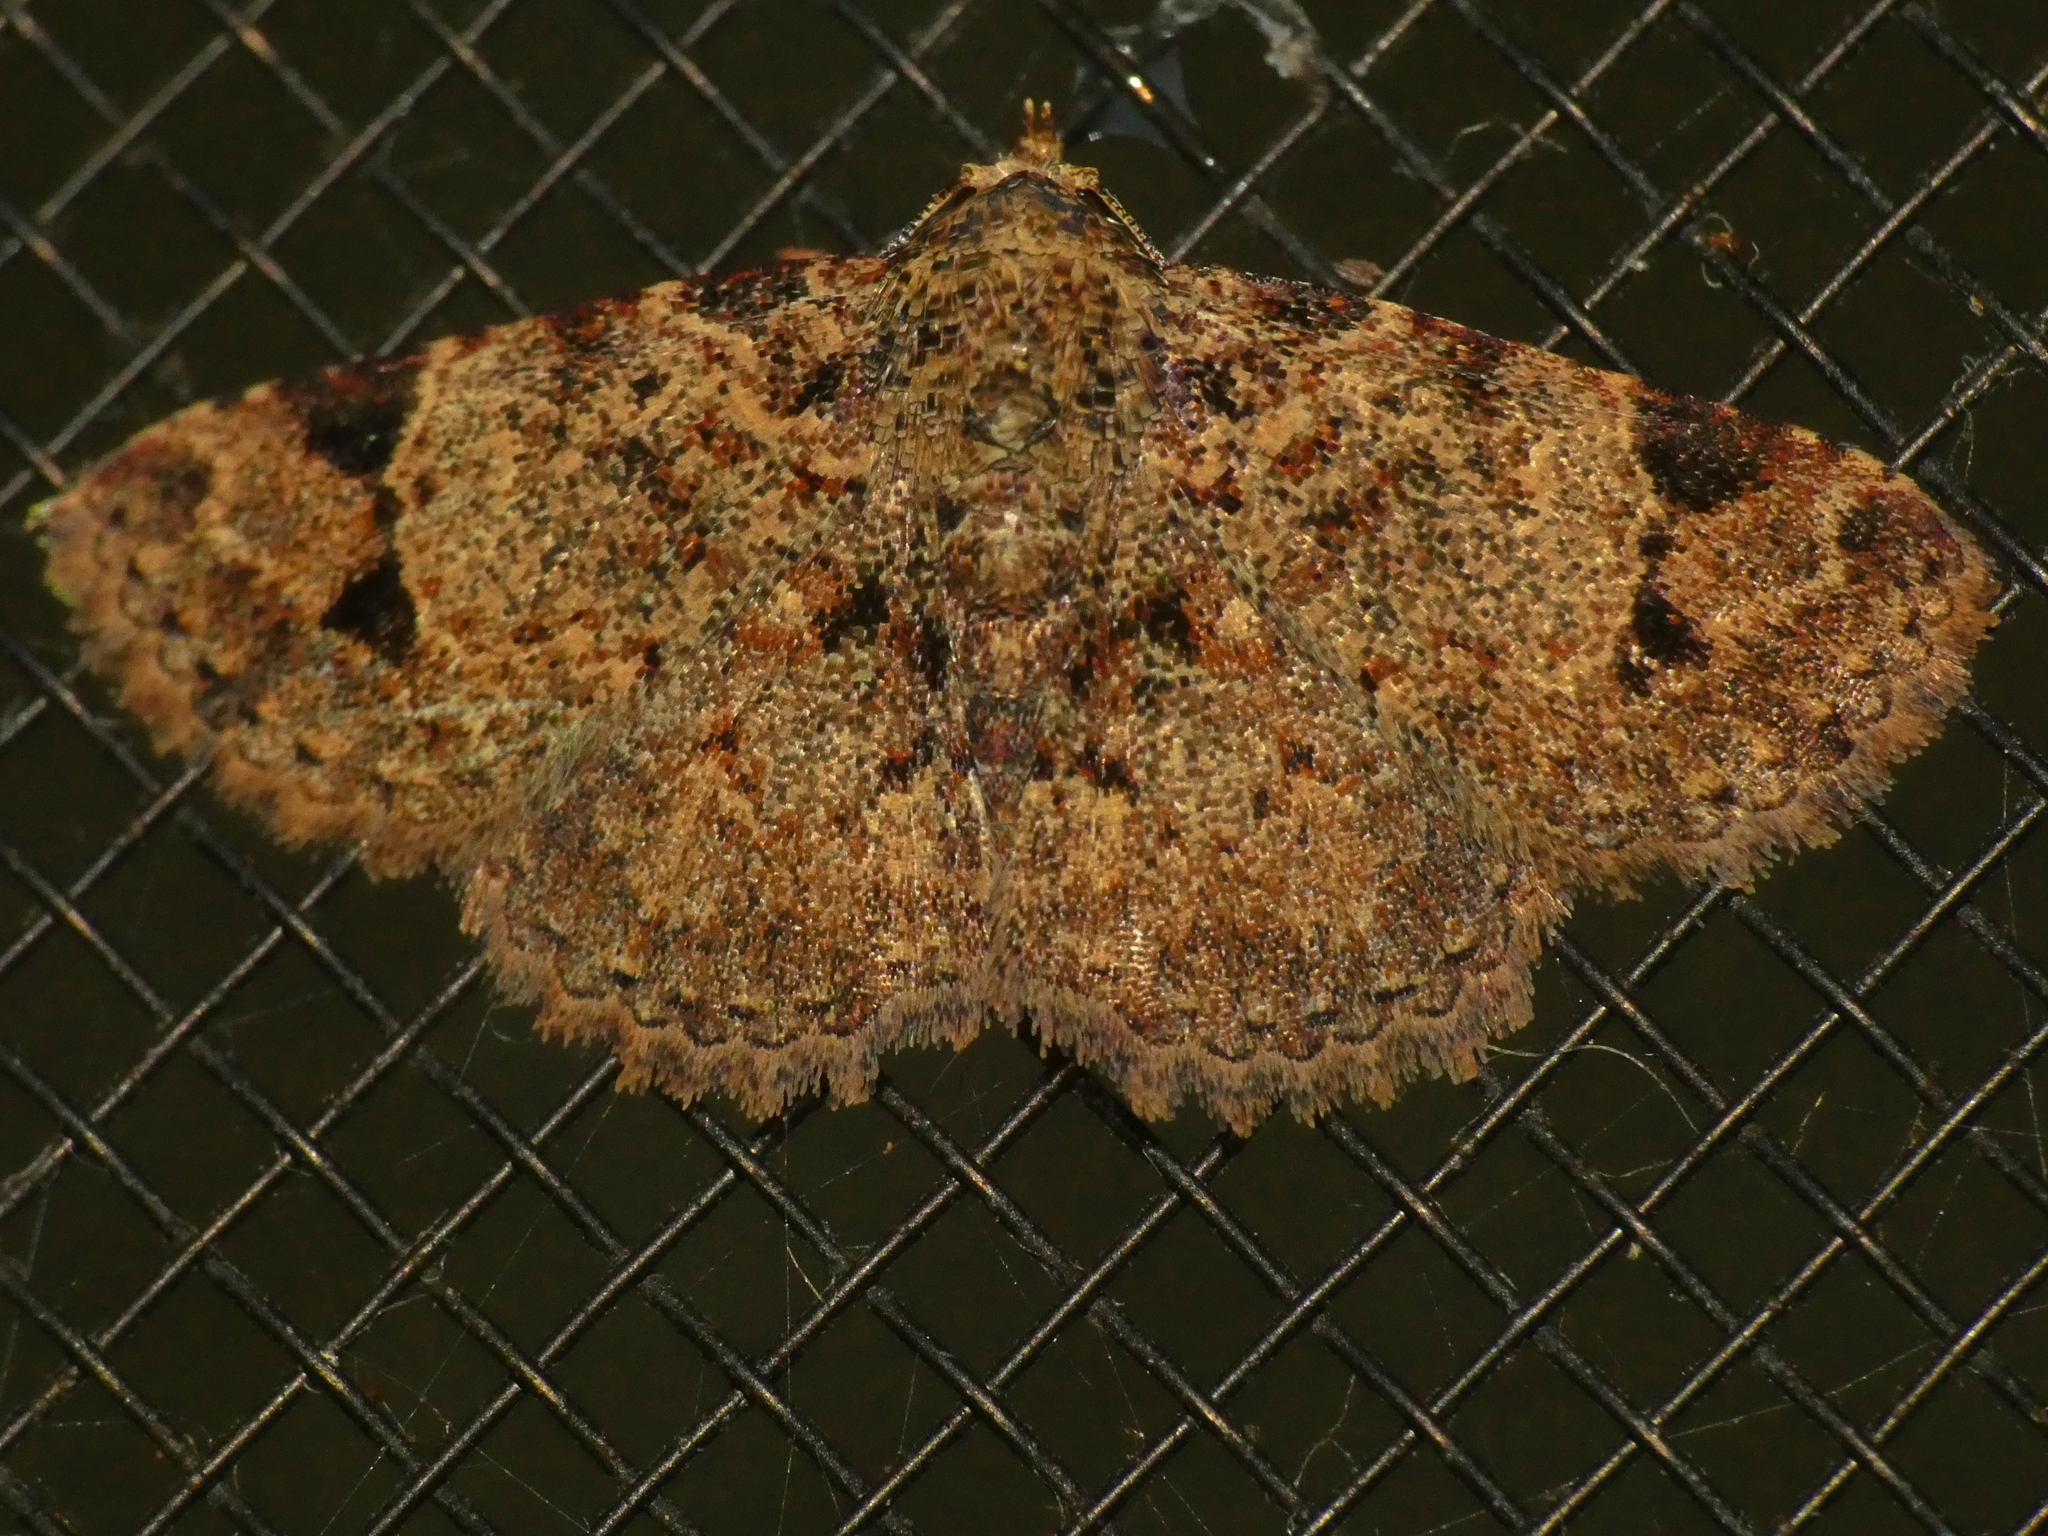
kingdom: Animalia
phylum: Arthropoda
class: Insecta
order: Lepidoptera
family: Erebidae
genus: Panilla
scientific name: Panilla spilotis
